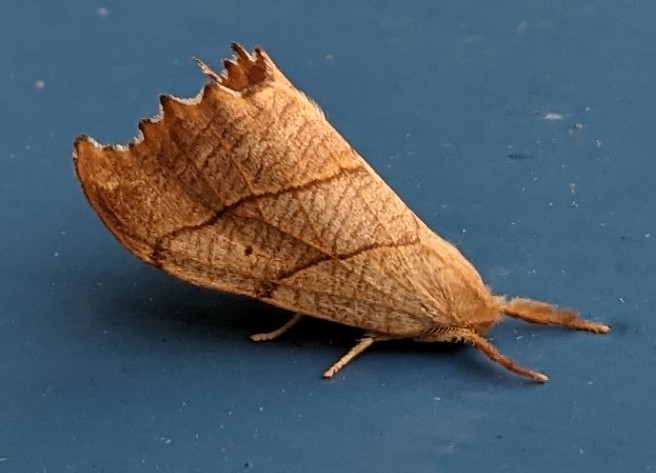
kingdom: Animalia
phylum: Arthropoda
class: Insecta
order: Lepidoptera
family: Drepanidae
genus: Falcaria
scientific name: Falcaria bilineata
